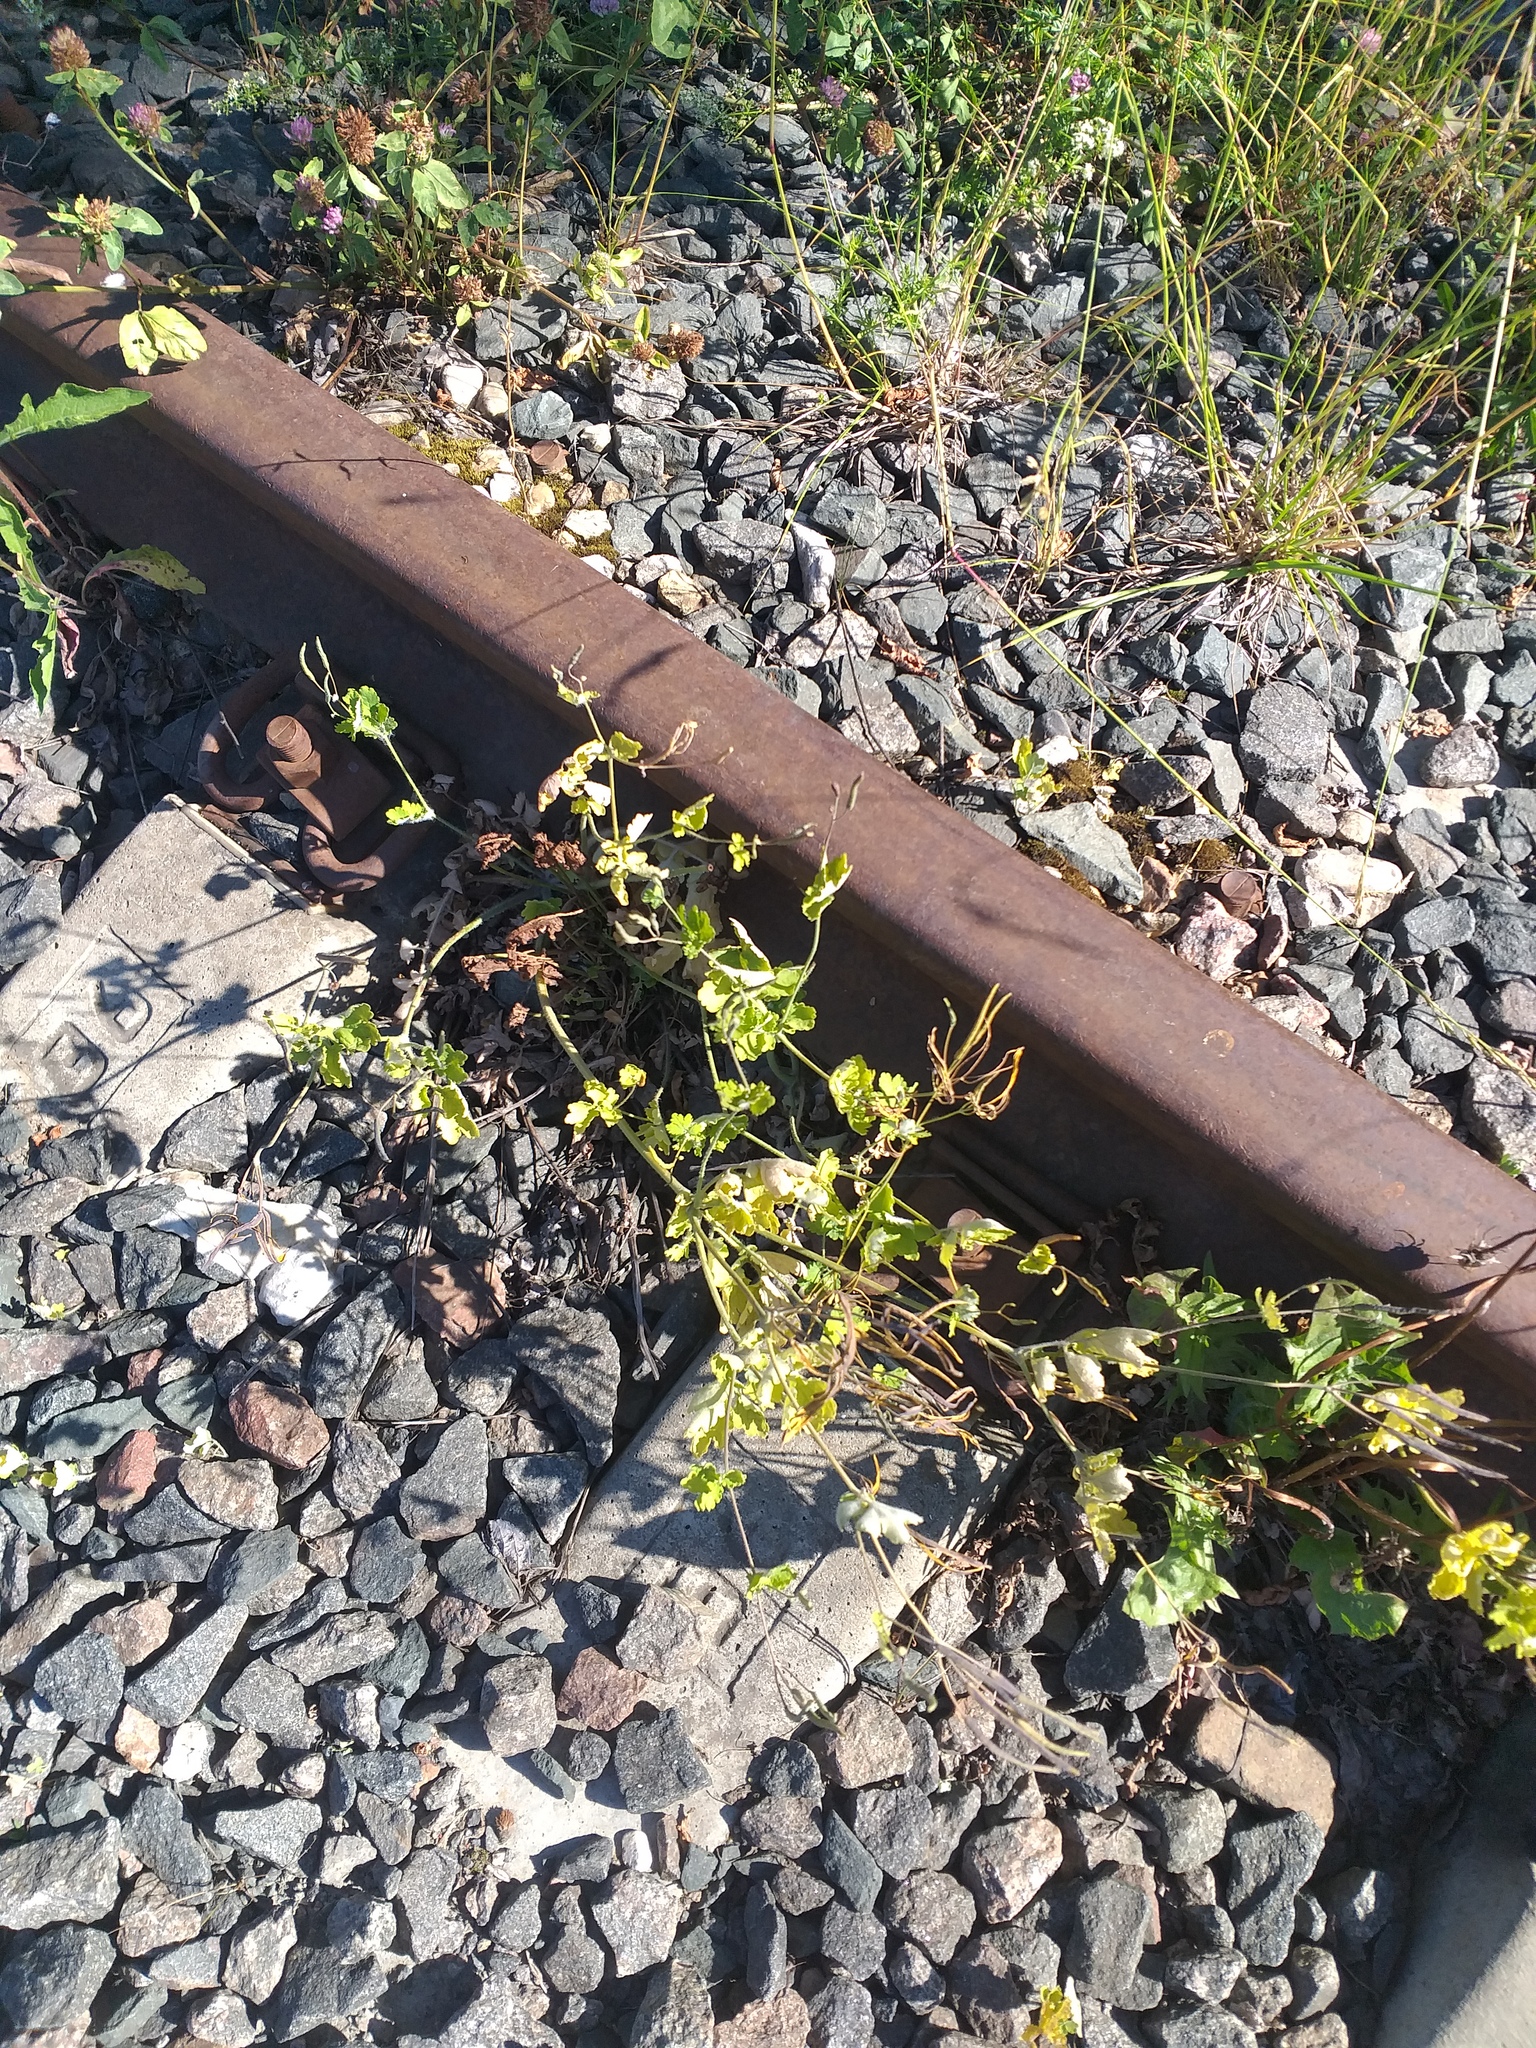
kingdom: Plantae
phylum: Tracheophyta
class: Magnoliopsida
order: Ranunculales
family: Papaveraceae
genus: Chelidonium
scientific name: Chelidonium majus
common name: Greater celandine
